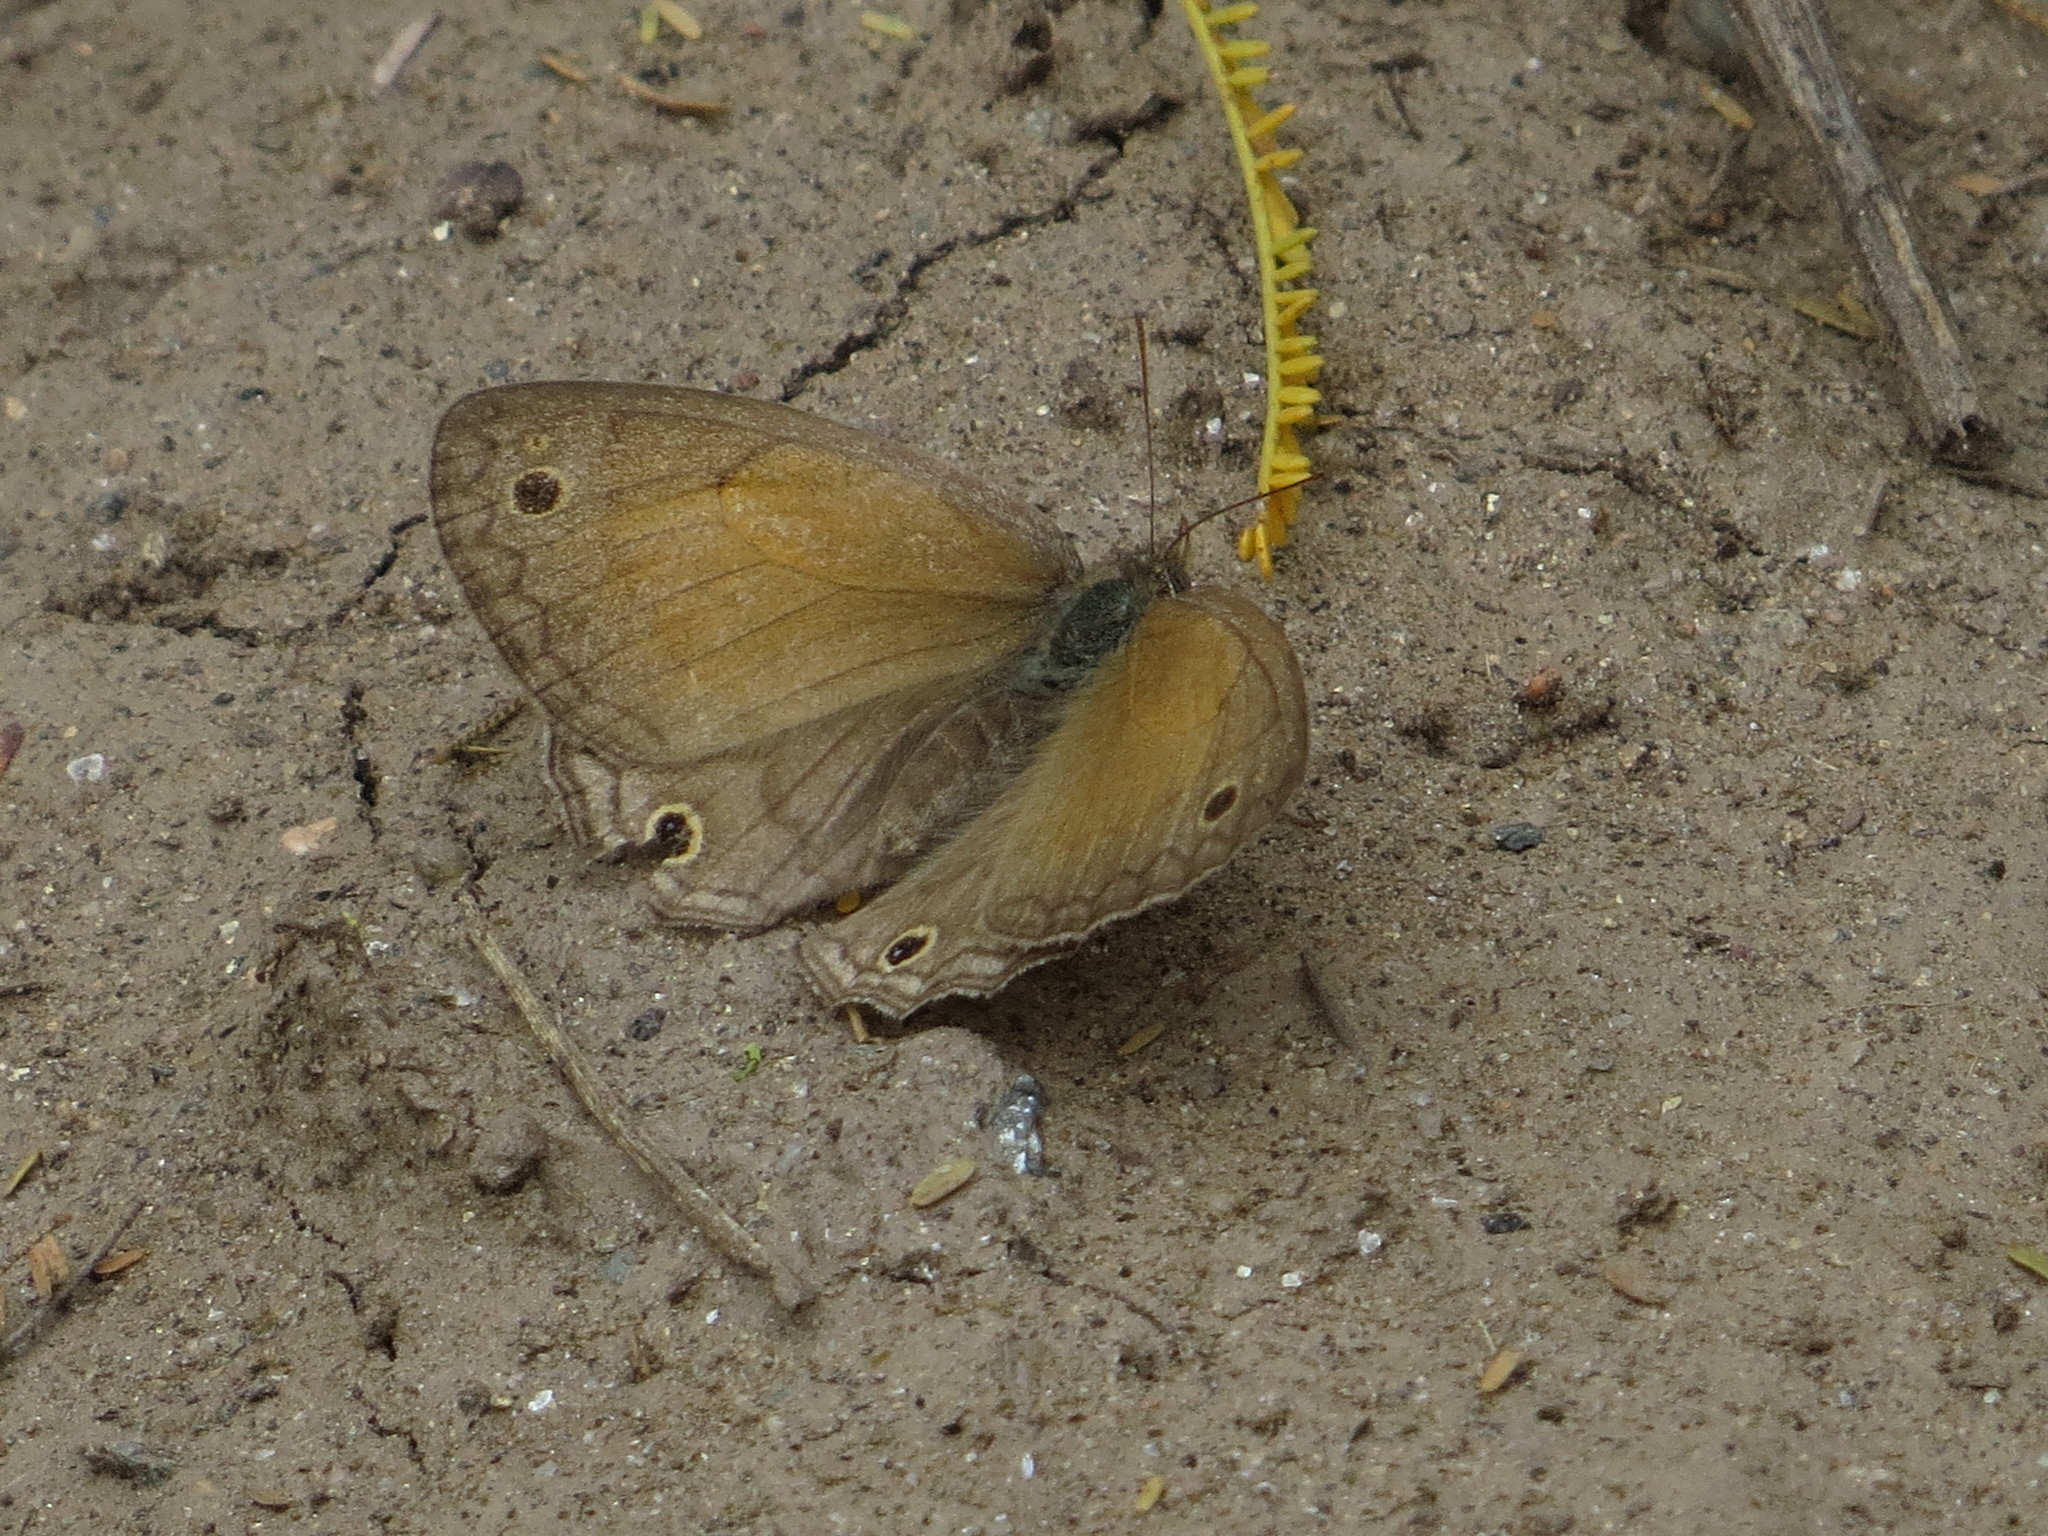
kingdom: Animalia
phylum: Arthropoda
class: Insecta
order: Lepidoptera
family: Nymphalidae
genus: Pharneuptychia
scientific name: Pharneuptychia phares
